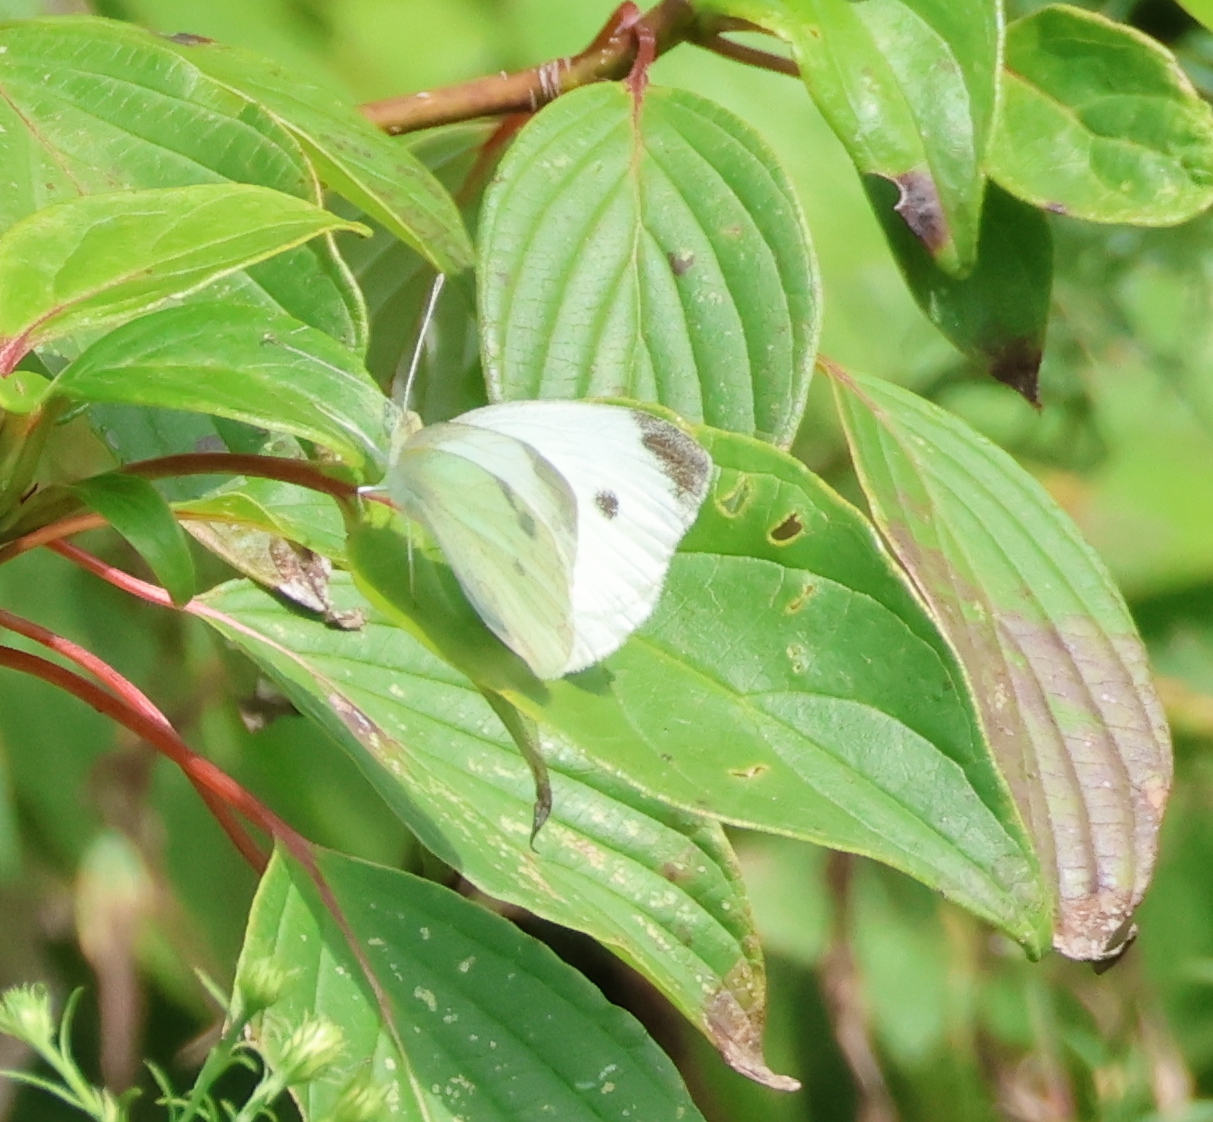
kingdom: Animalia
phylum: Arthropoda
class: Insecta
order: Lepidoptera
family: Pieridae
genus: Pieris
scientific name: Pieris rapae
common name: Small white
